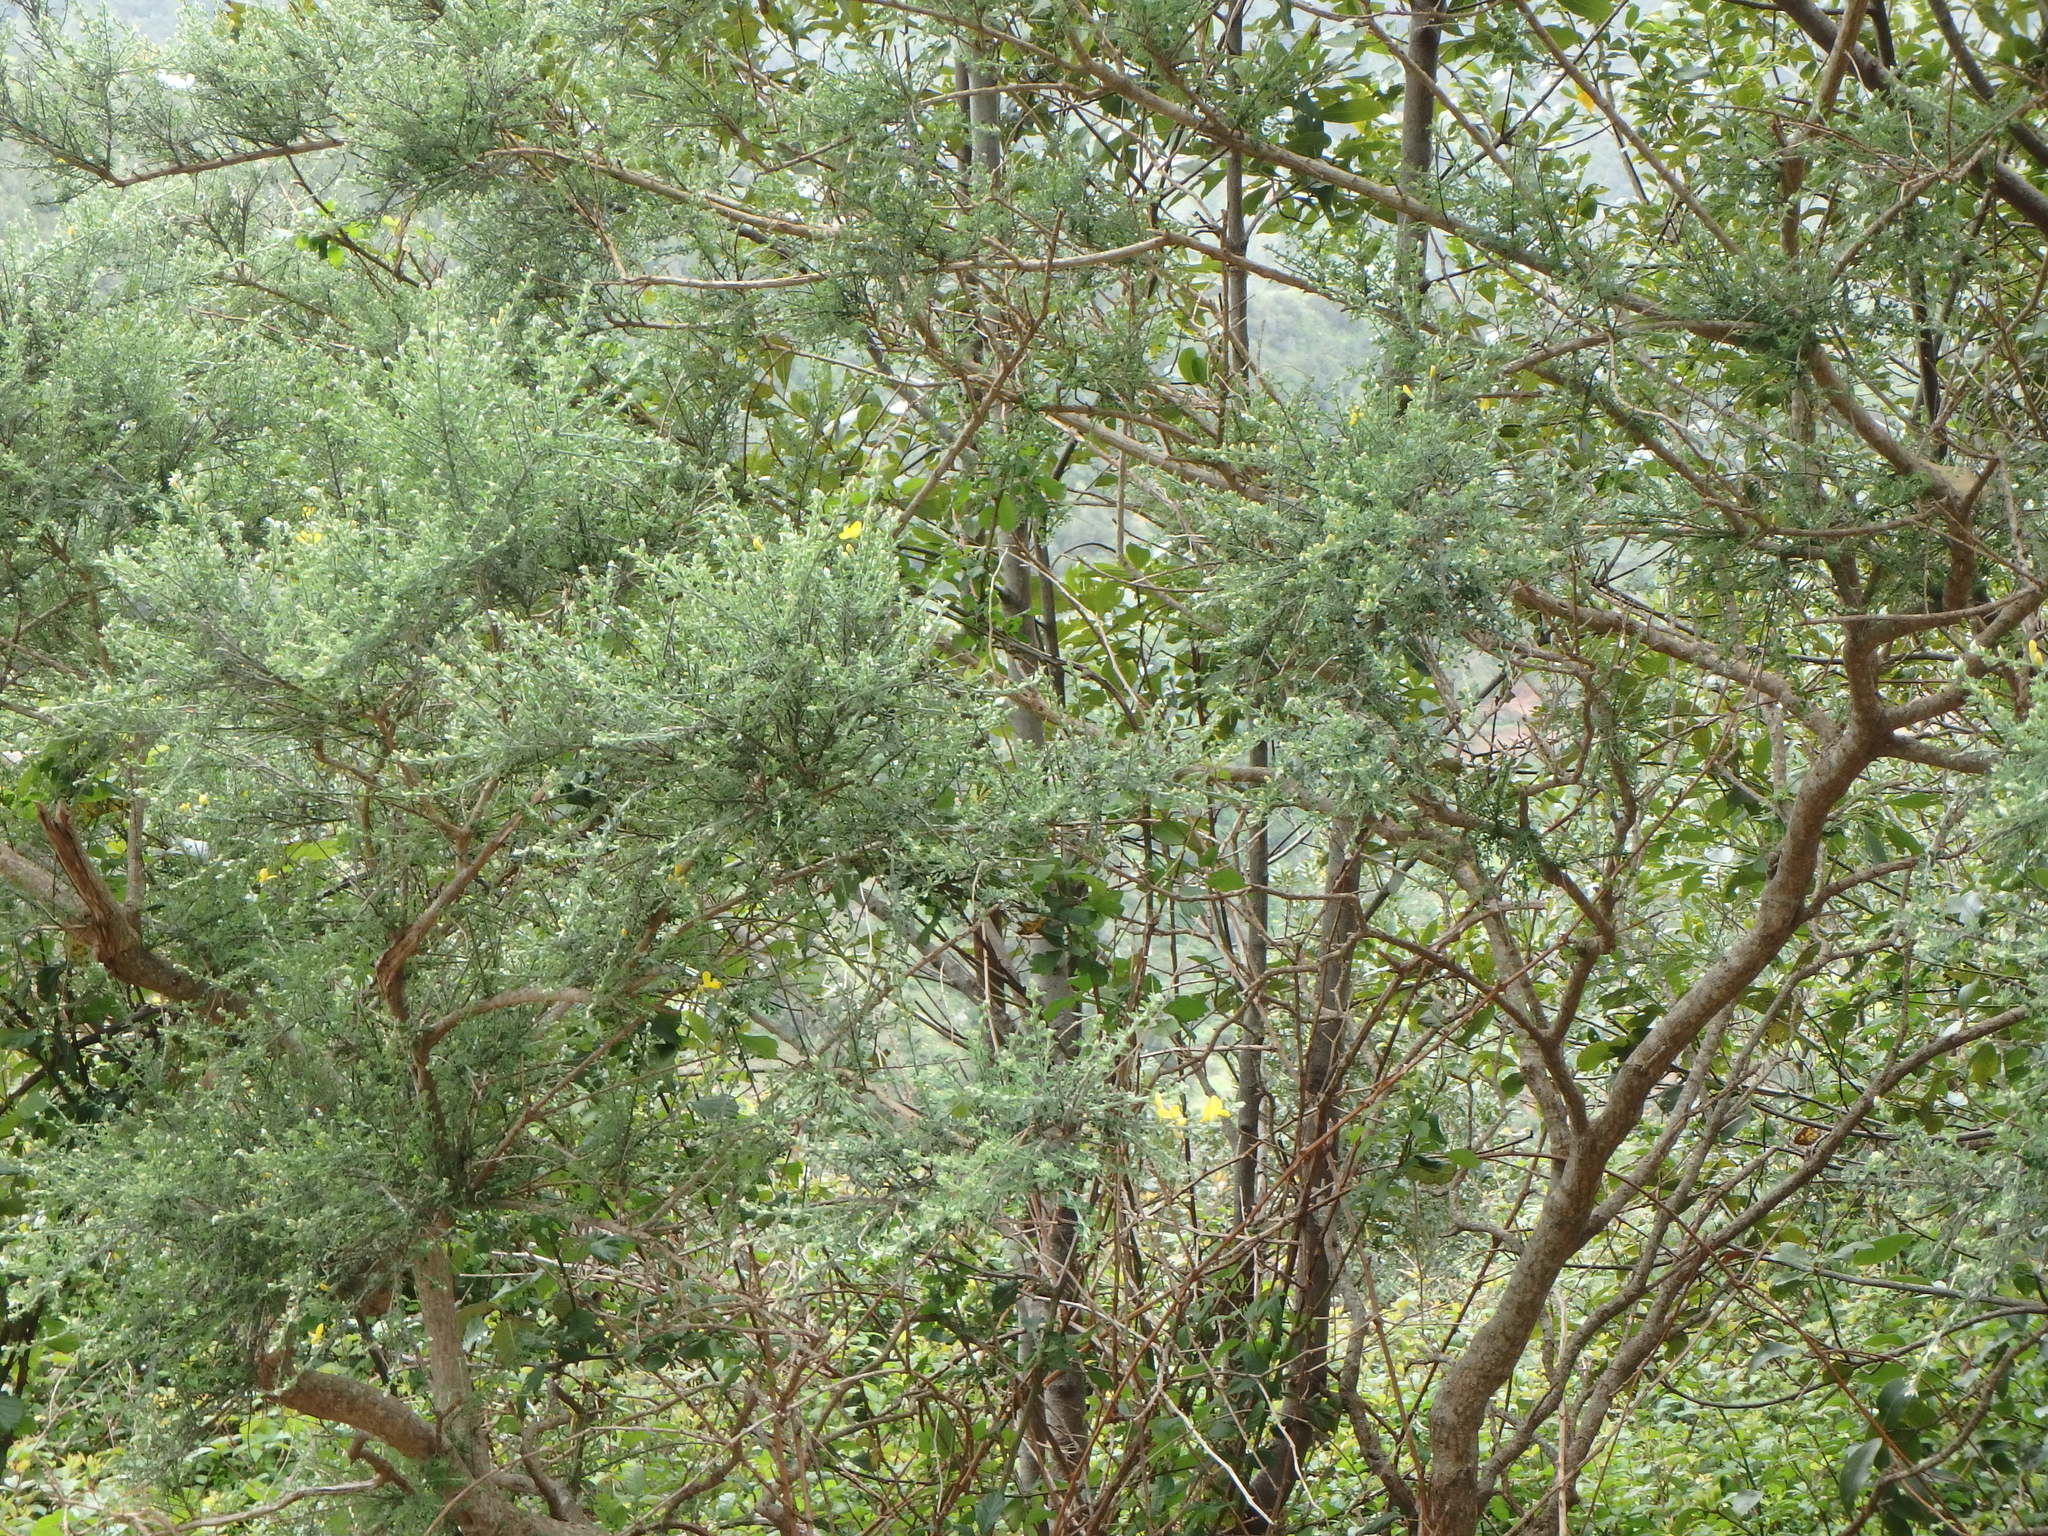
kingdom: Plantae
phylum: Tracheophyta
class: Magnoliopsida
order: Fabales
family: Fabaceae
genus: Genista
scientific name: Genista canariensis
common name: Canary broom
